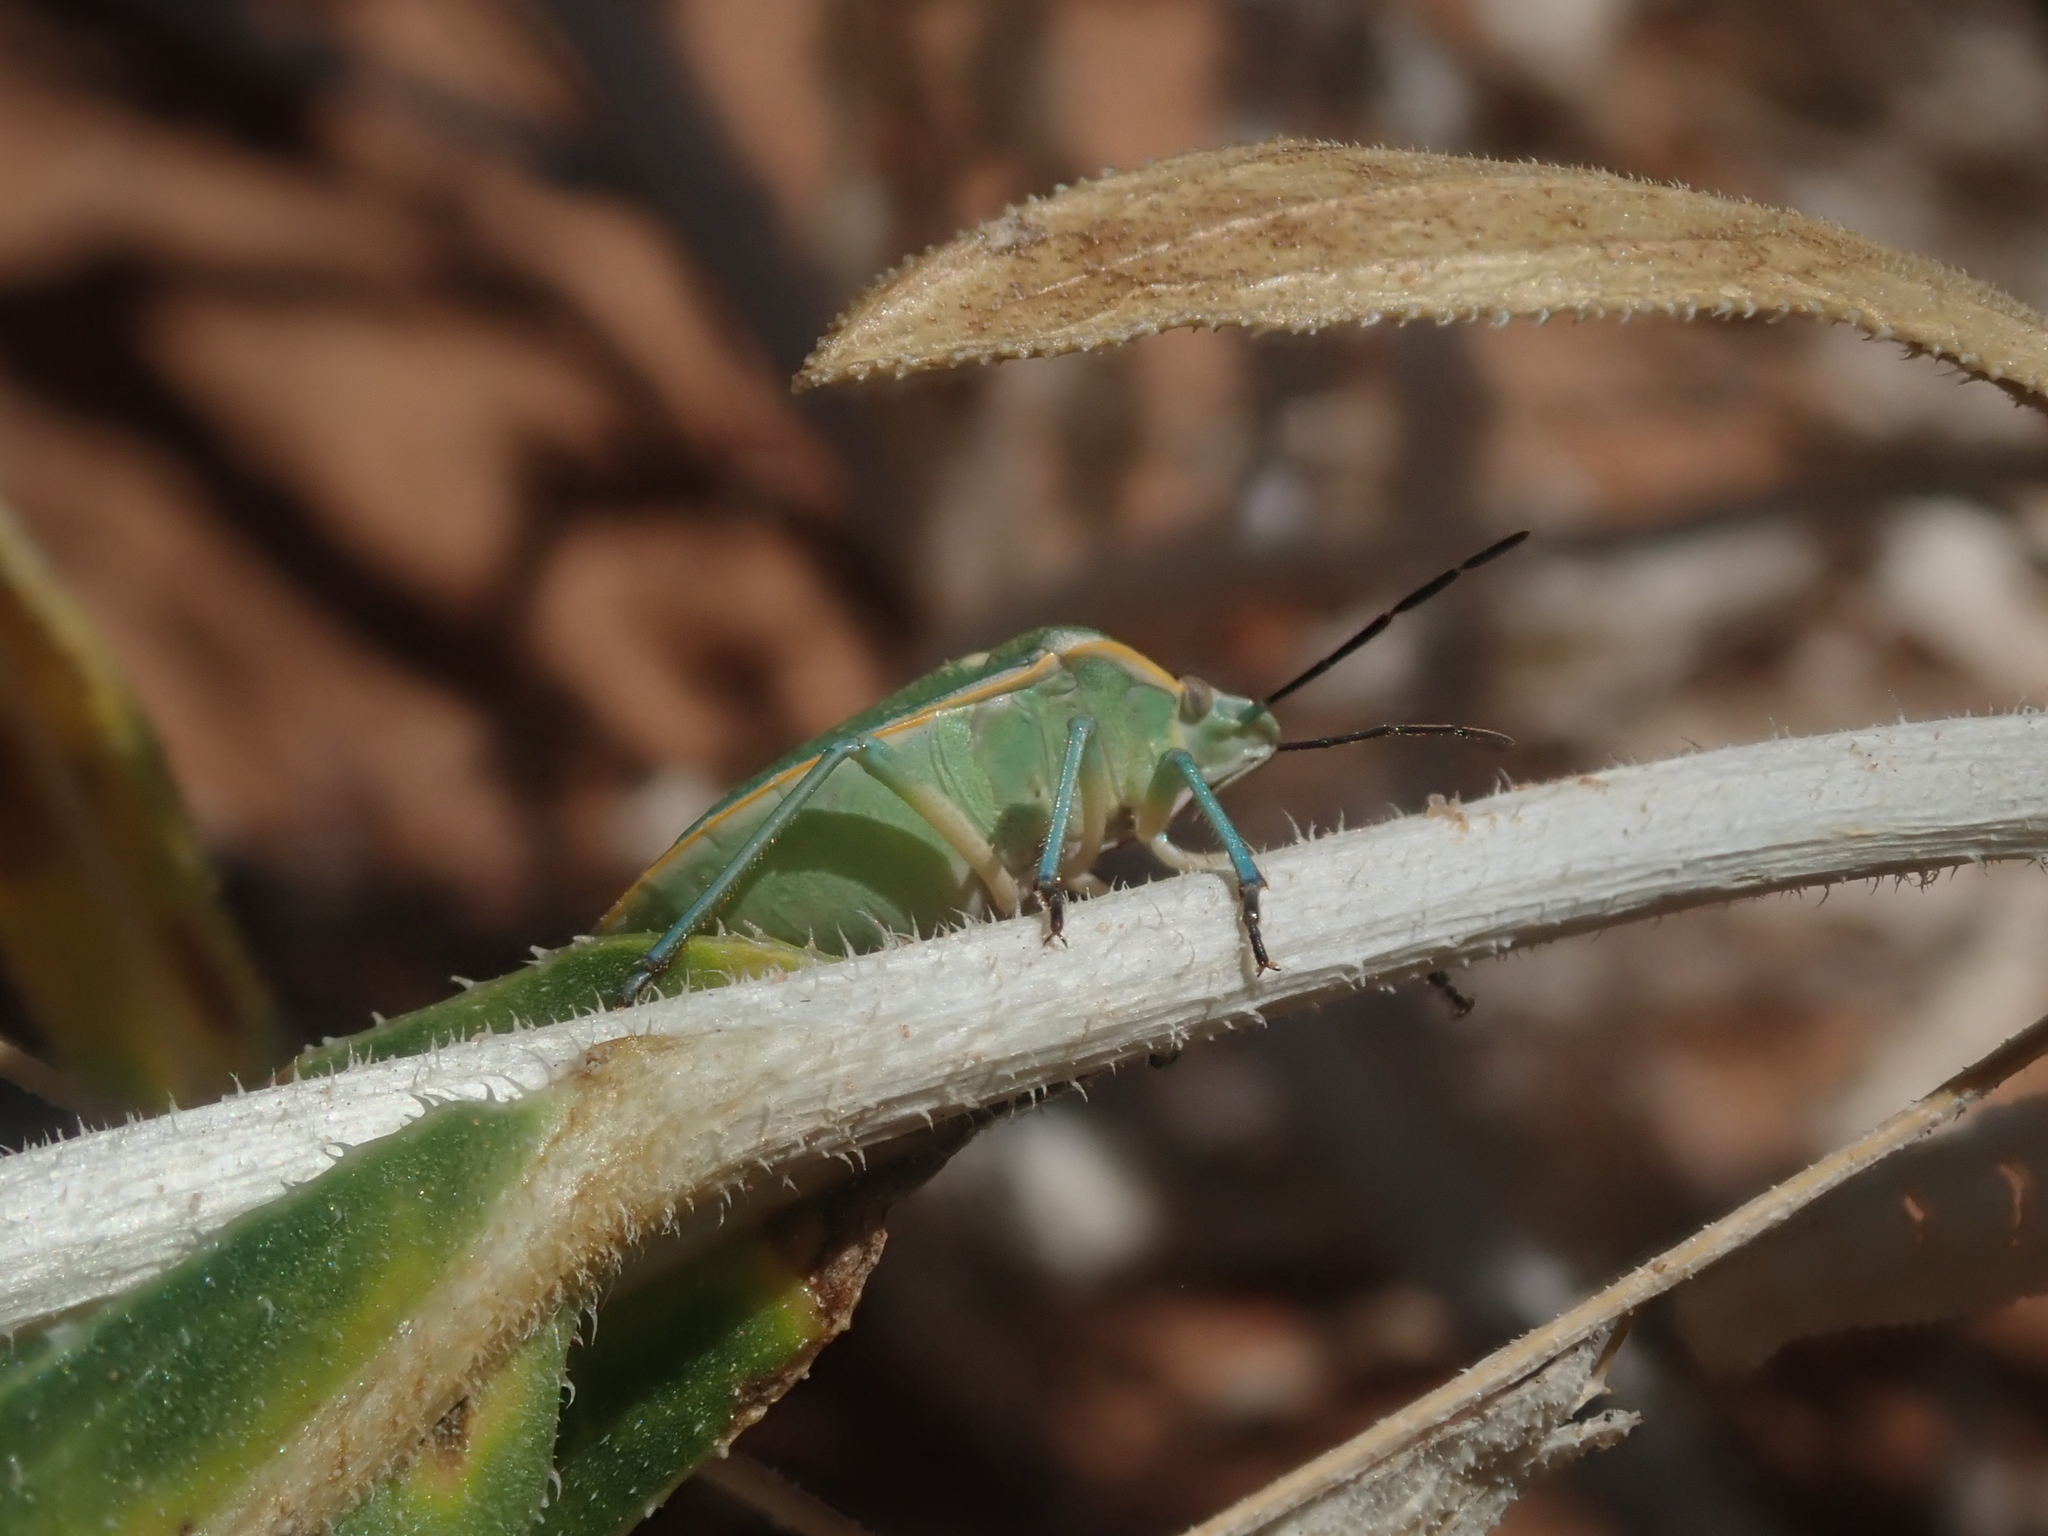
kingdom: Animalia
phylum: Arthropoda
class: Insecta
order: Hemiptera
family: Pentatomidae
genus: Chlorochroa
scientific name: Chlorochroa sayi
